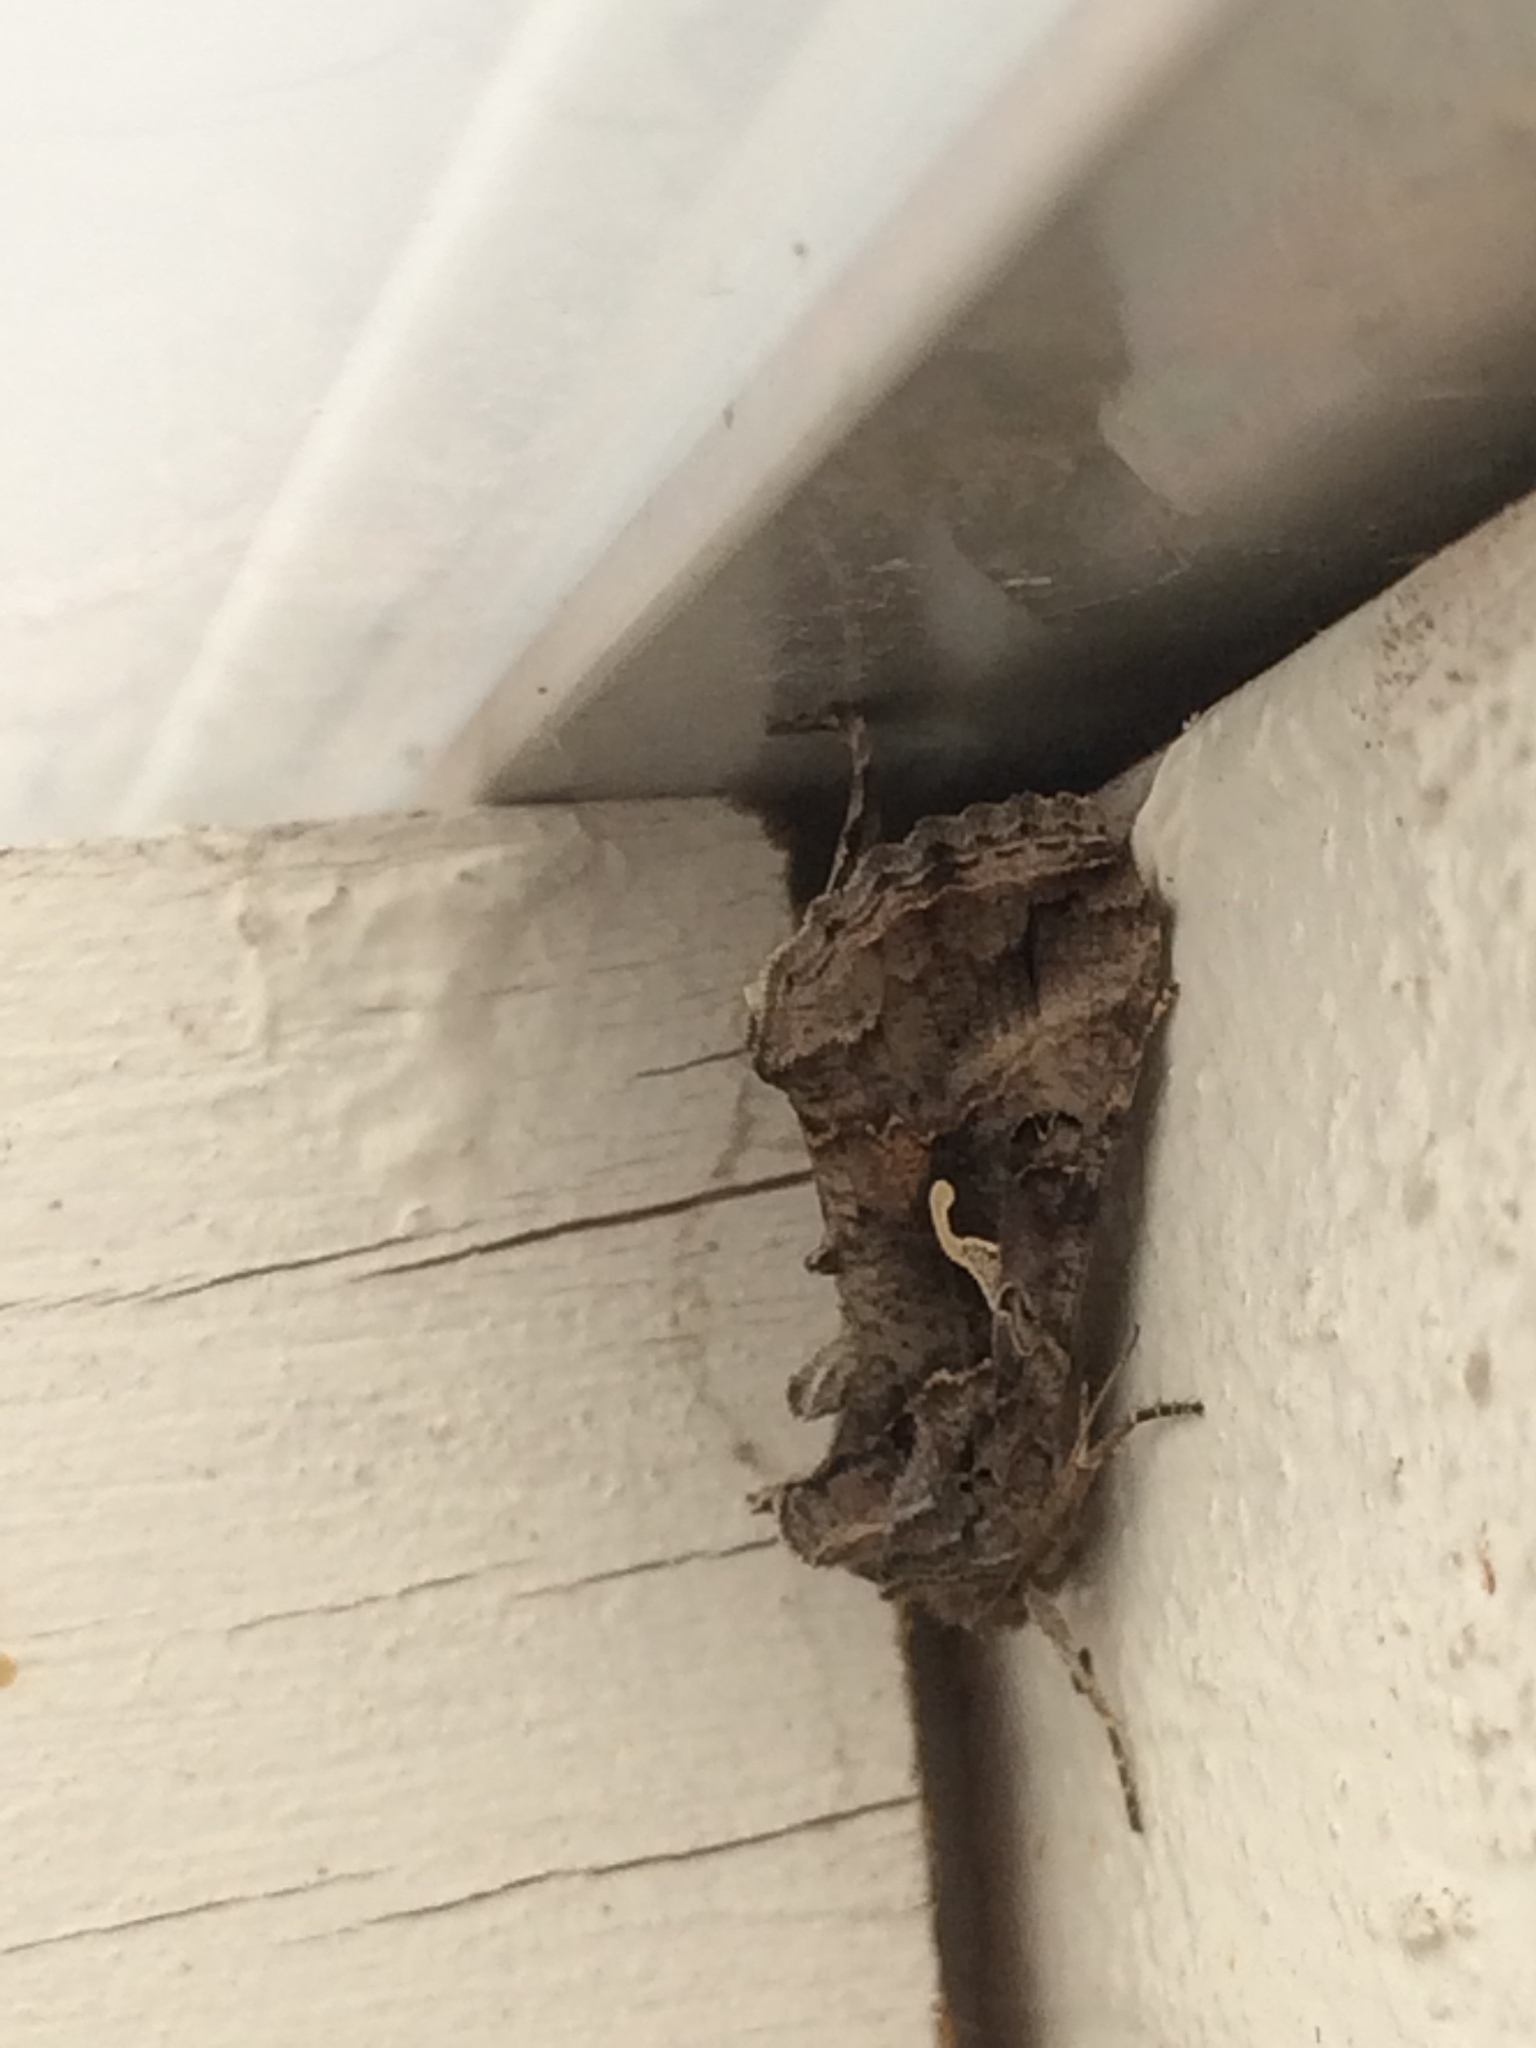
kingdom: Animalia
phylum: Arthropoda
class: Insecta
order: Lepidoptera
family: Noctuidae
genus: Autographa
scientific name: Autographa gamma
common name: Silver y
